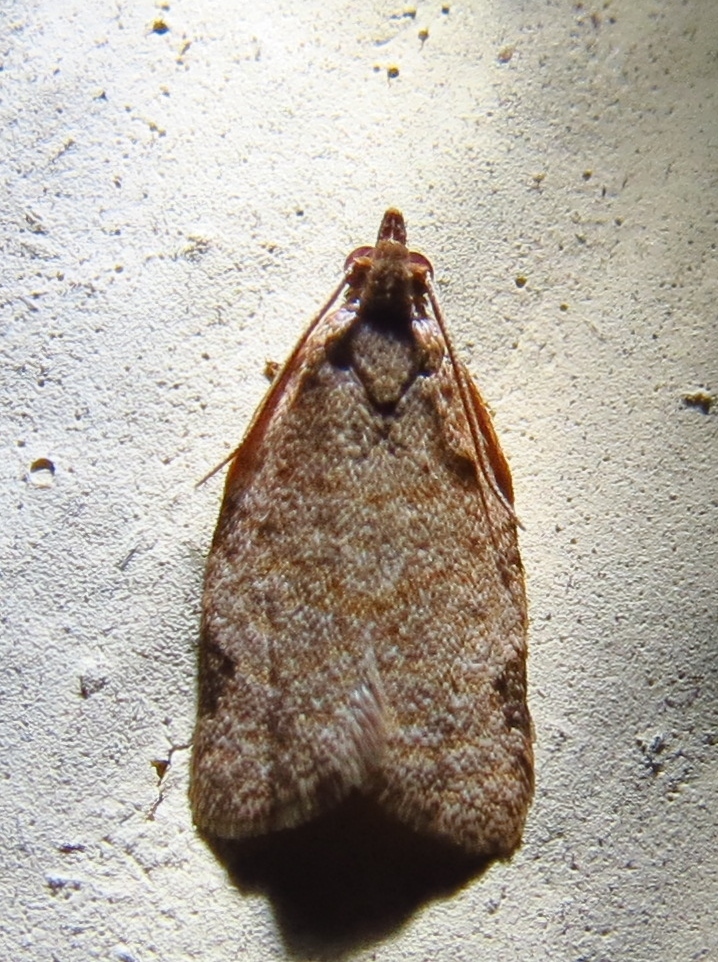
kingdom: Animalia
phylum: Arthropoda
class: Insecta
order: Lepidoptera
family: Tortricidae
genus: Clepsis
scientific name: Clepsis virescana
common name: Greenish apple moth
